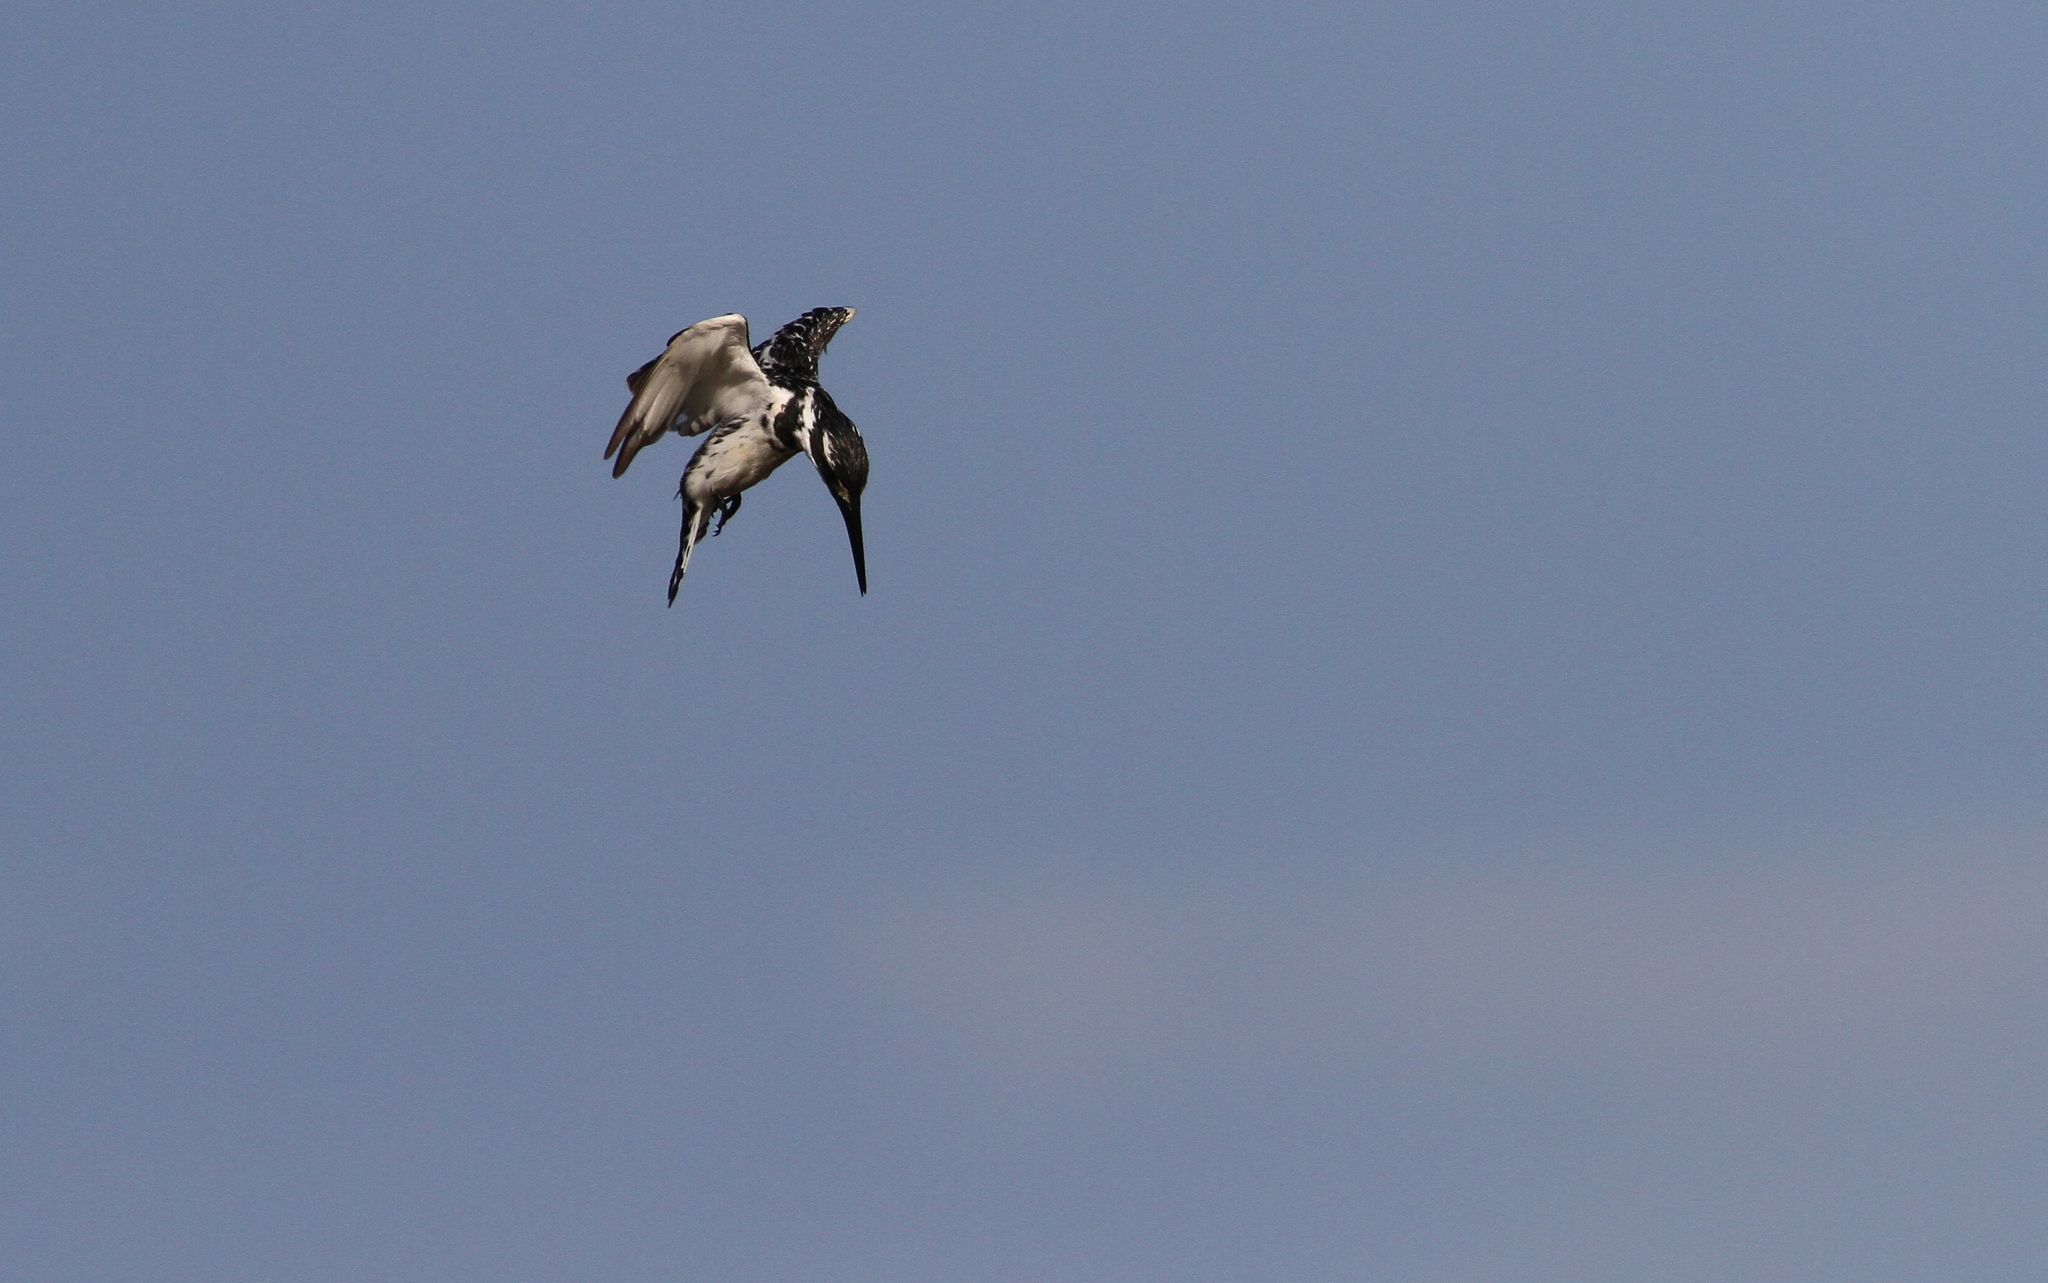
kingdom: Animalia
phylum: Chordata
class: Aves
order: Coraciiformes
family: Alcedinidae
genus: Ceryle
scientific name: Ceryle rudis
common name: Pied kingfisher
